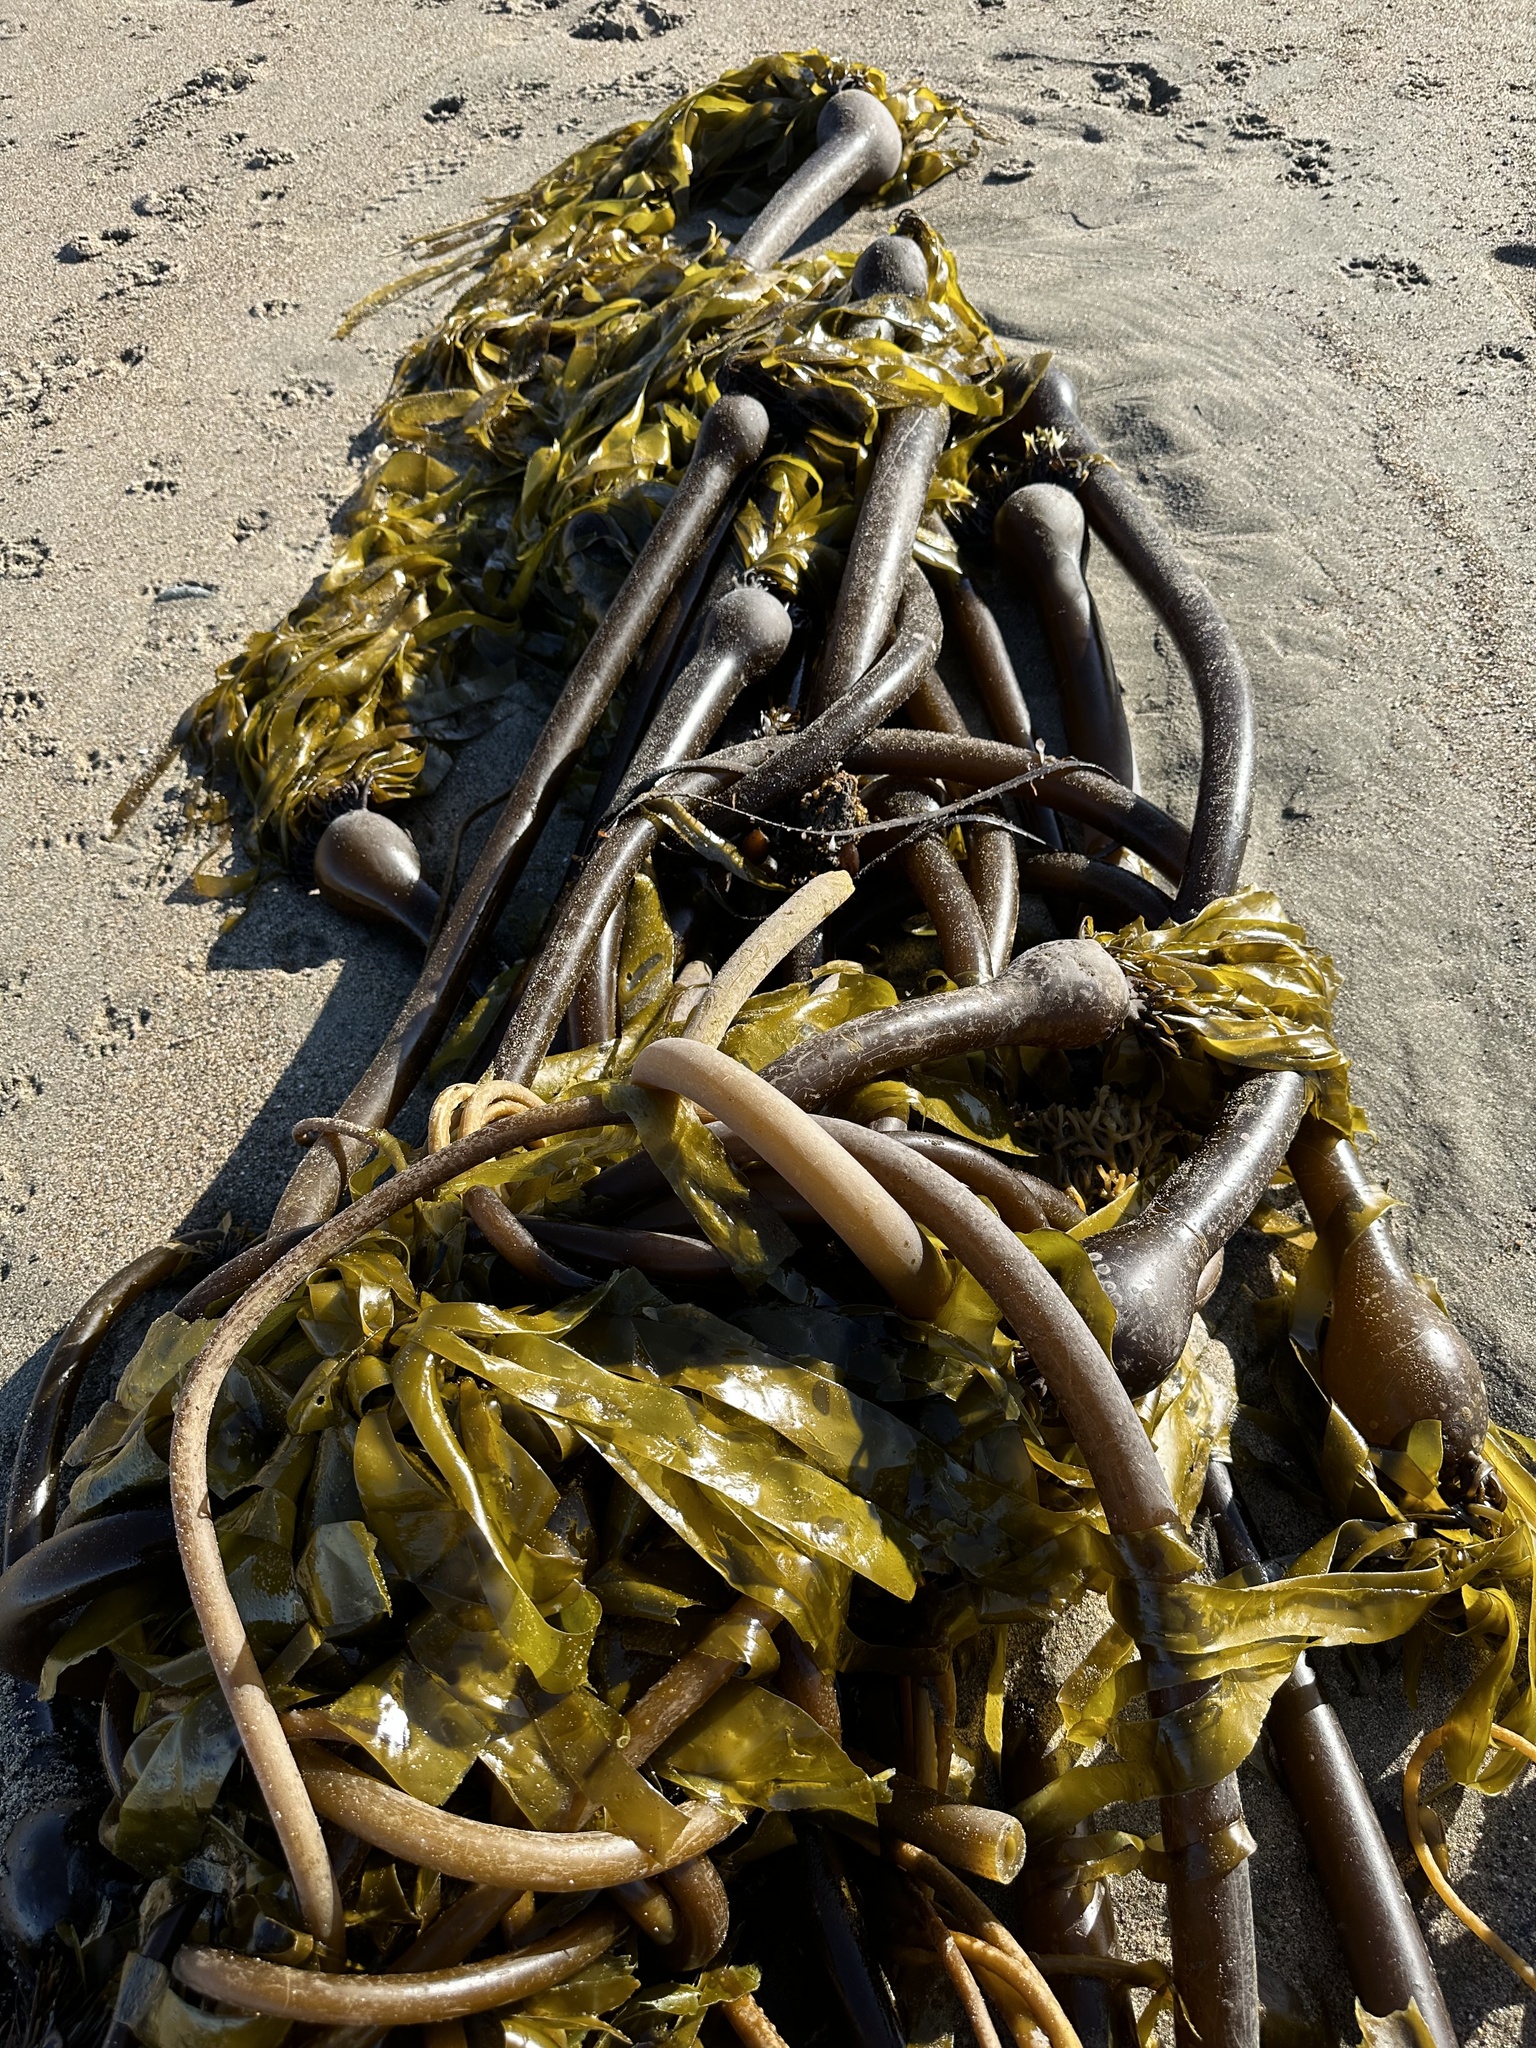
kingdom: Chromista
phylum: Ochrophyta
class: Phaeophyceae
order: Laminariales
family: Laminariaceae
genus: Nereocystis
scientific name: Nereocystis luetkeana
